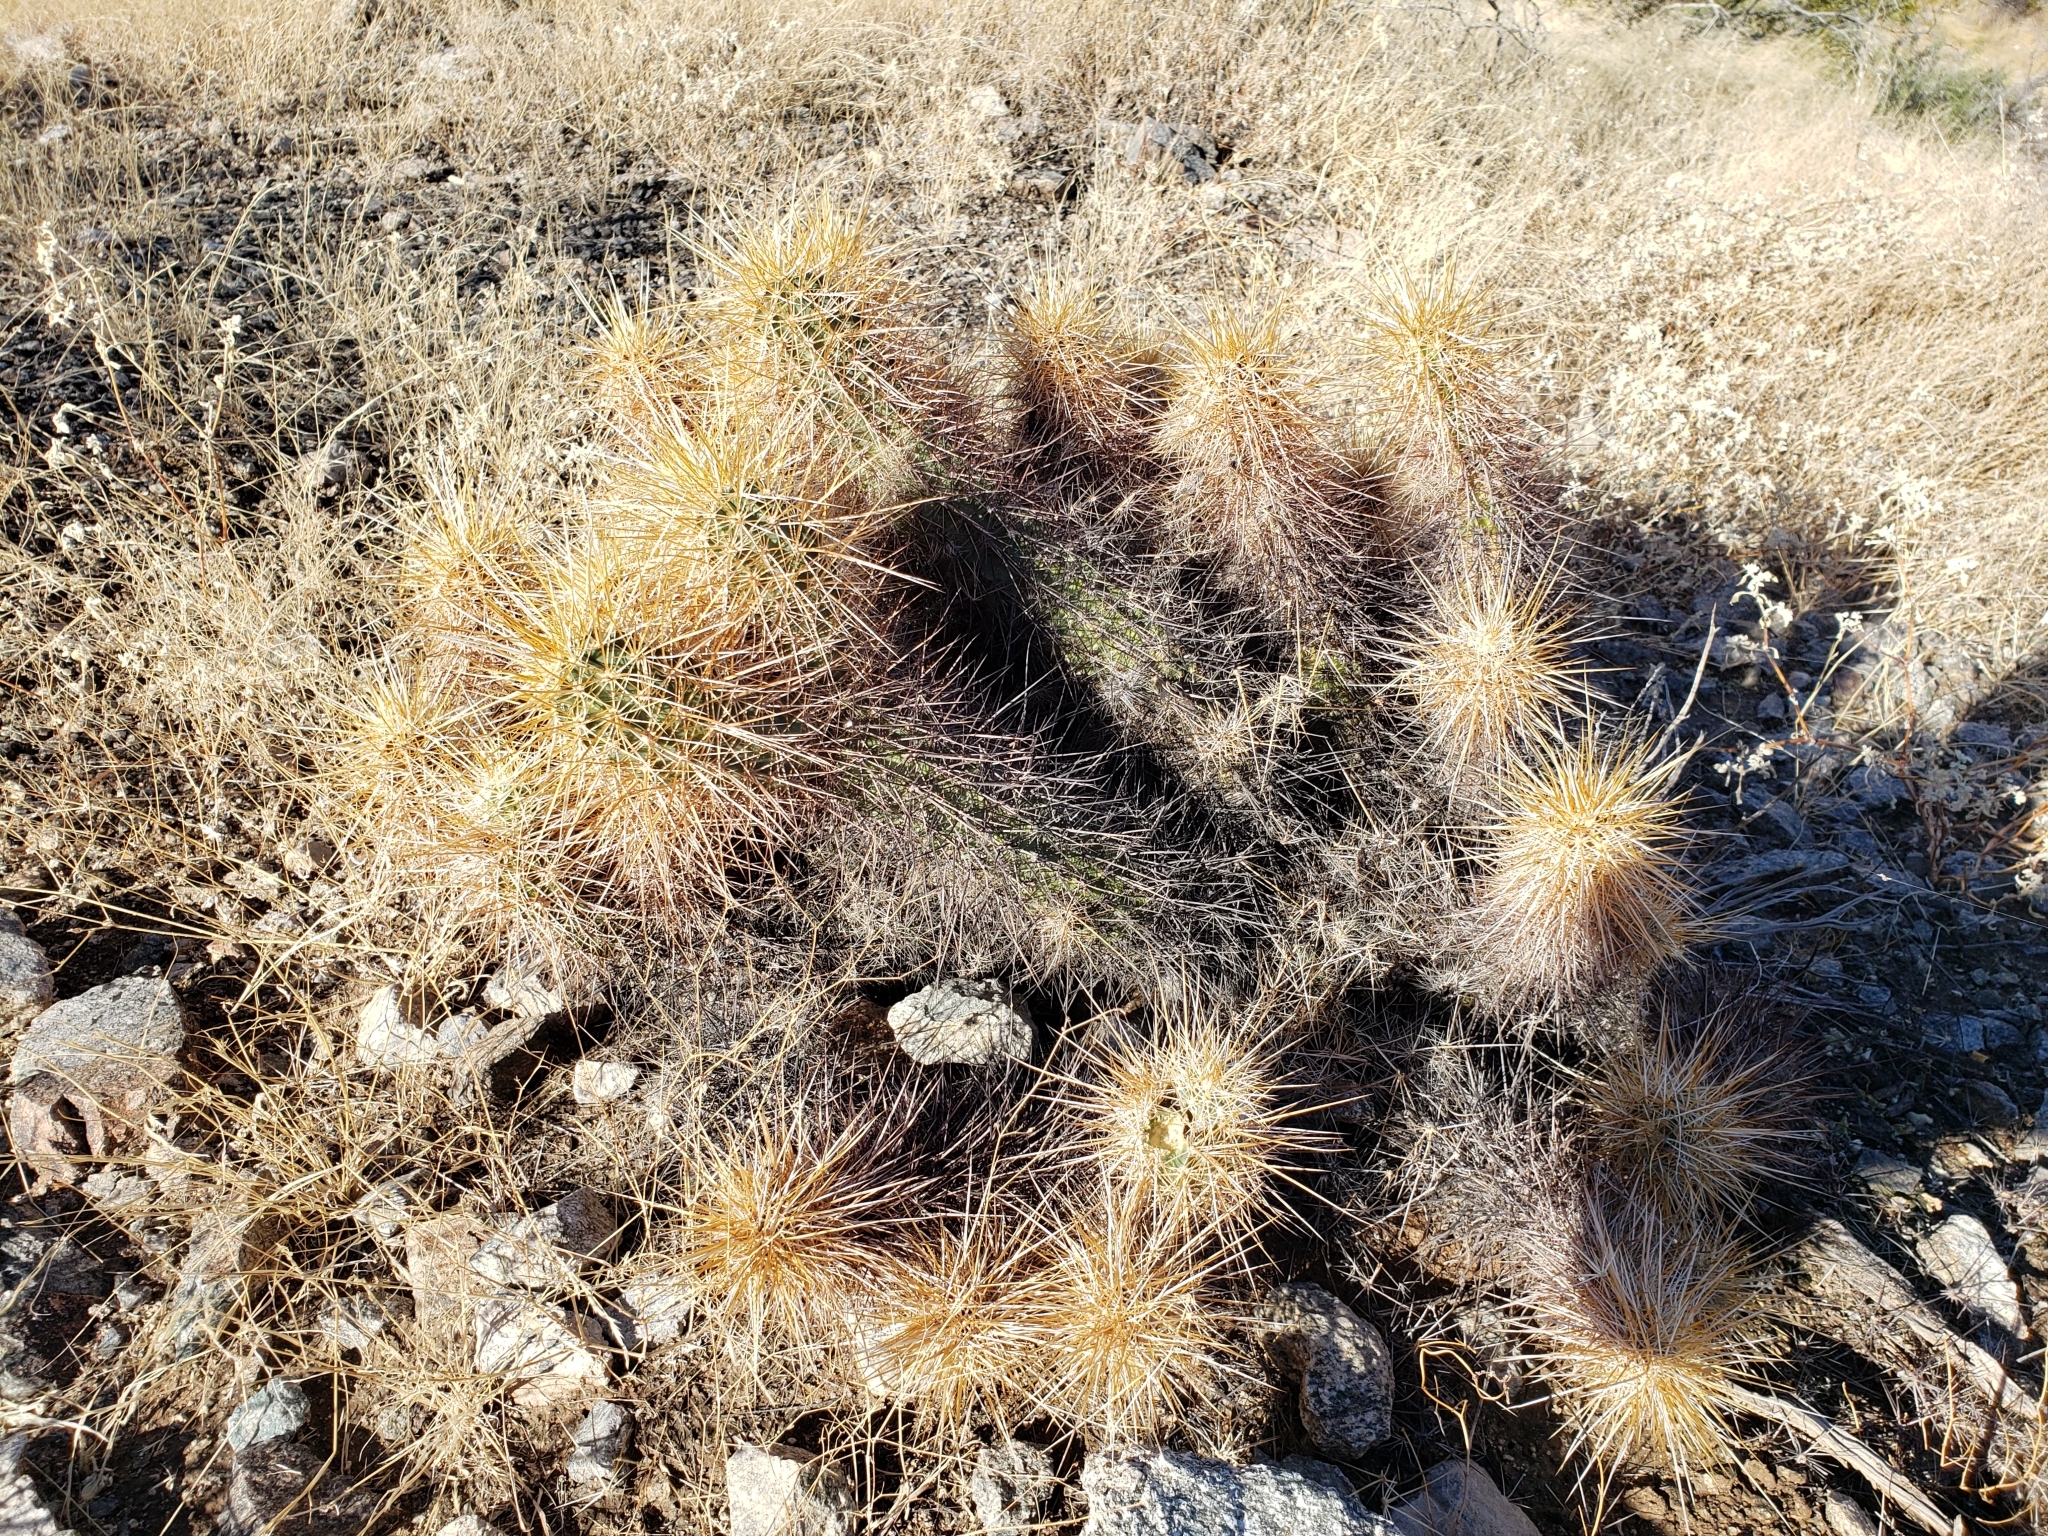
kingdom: Plantae
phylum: Tracheophyta
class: Magnoliopsida
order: Caryophyllales
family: Cactaceae
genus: Echinocereus
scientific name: Echinocereus engelmannii
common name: Engelmann's hedgehog cactus
